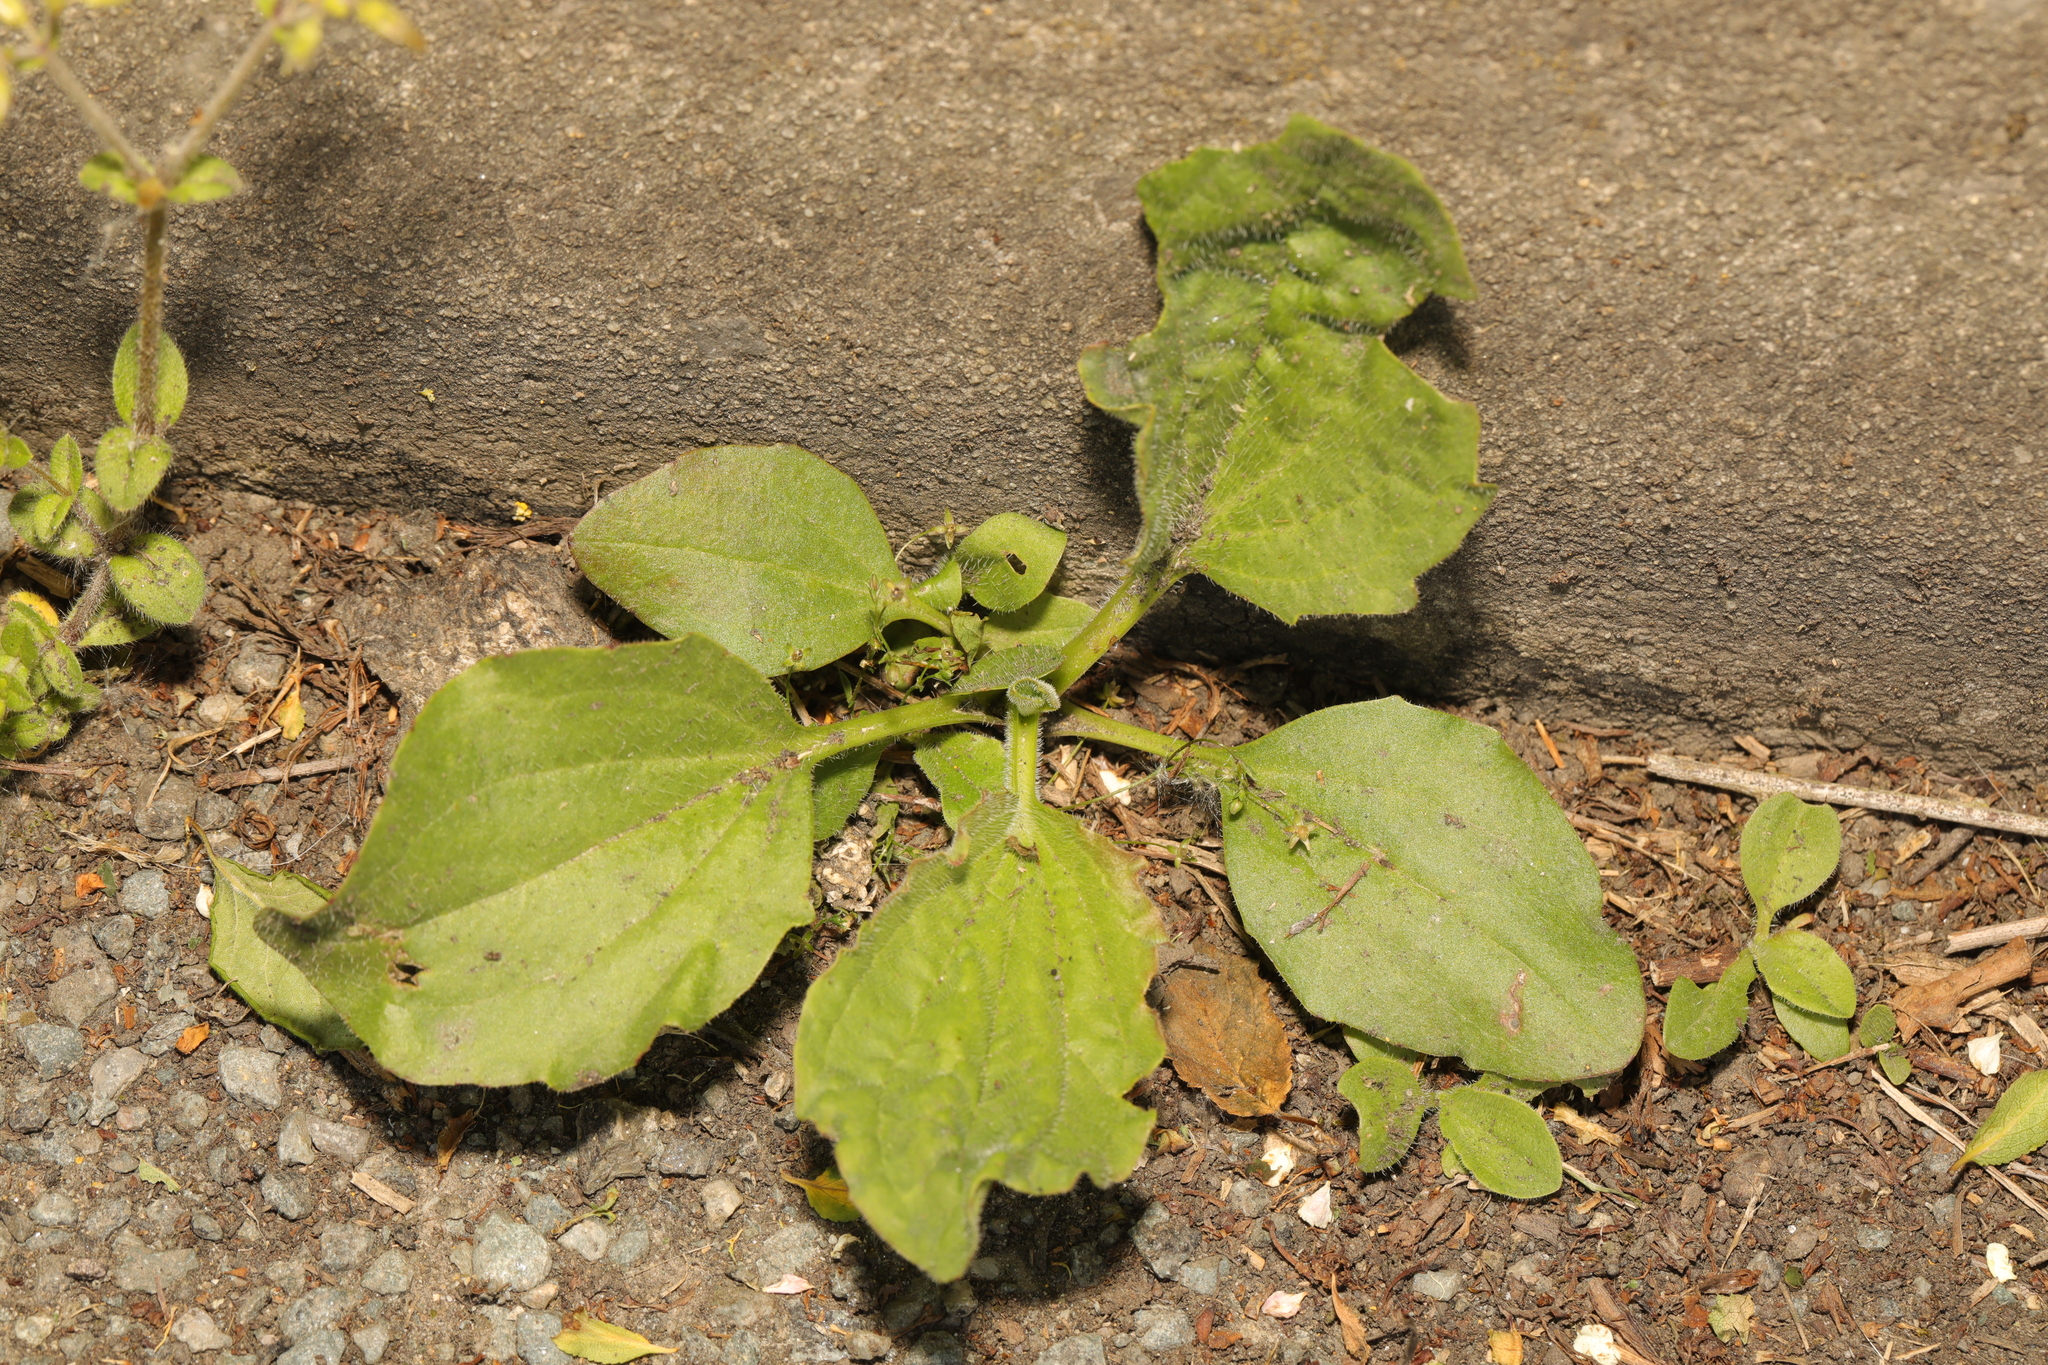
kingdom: Plantae
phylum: Tracheophyta
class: Magnoliopsida
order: Lamiales
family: Plantaginaceae
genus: Plantago
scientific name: Plantago major
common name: Common plantain
